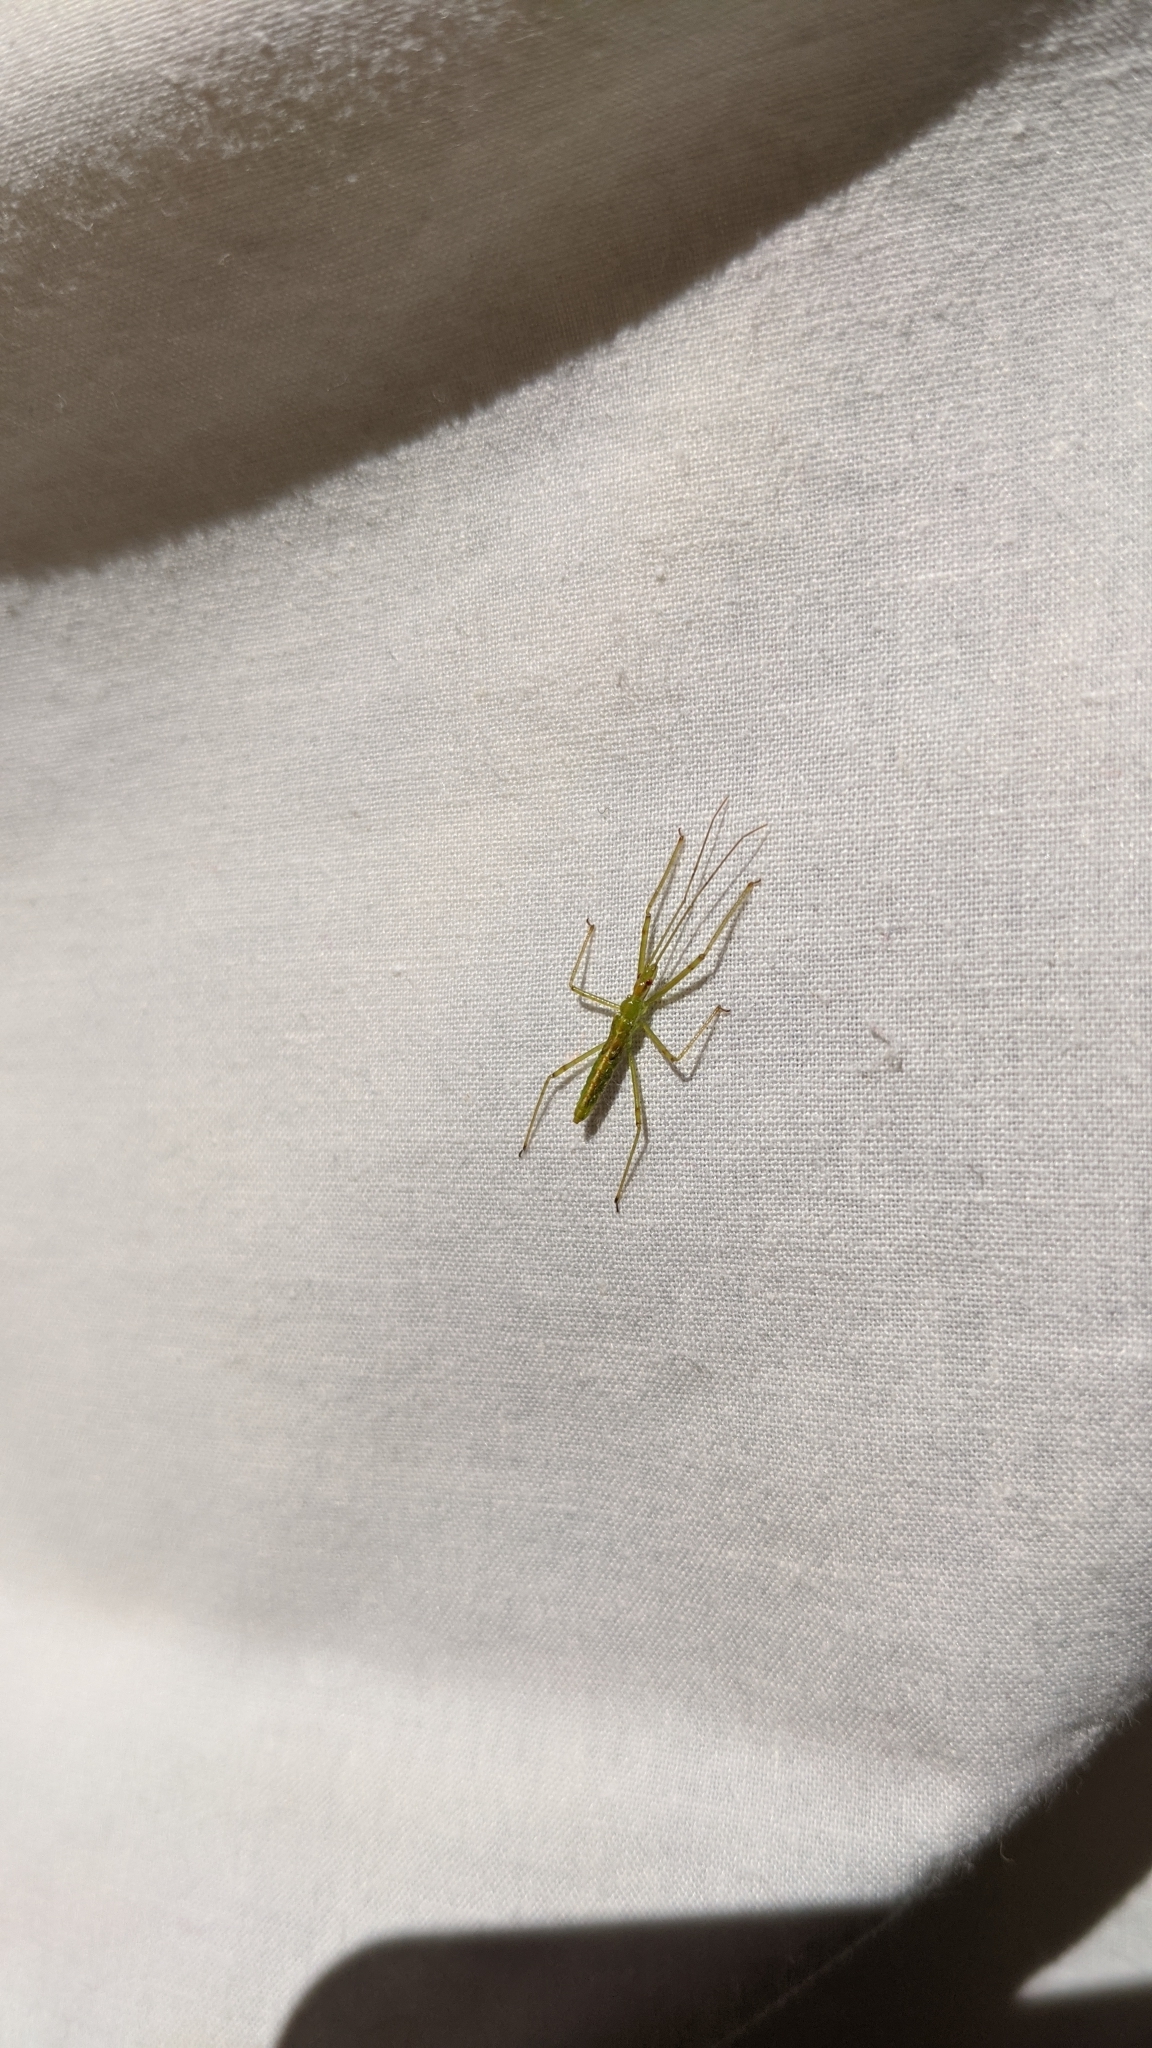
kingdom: Animalia
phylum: Arthropoda
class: Insecta
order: Hemiptera
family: Reduviidae
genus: Zelus
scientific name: Zelus luridus
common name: Pale green assassin bug
